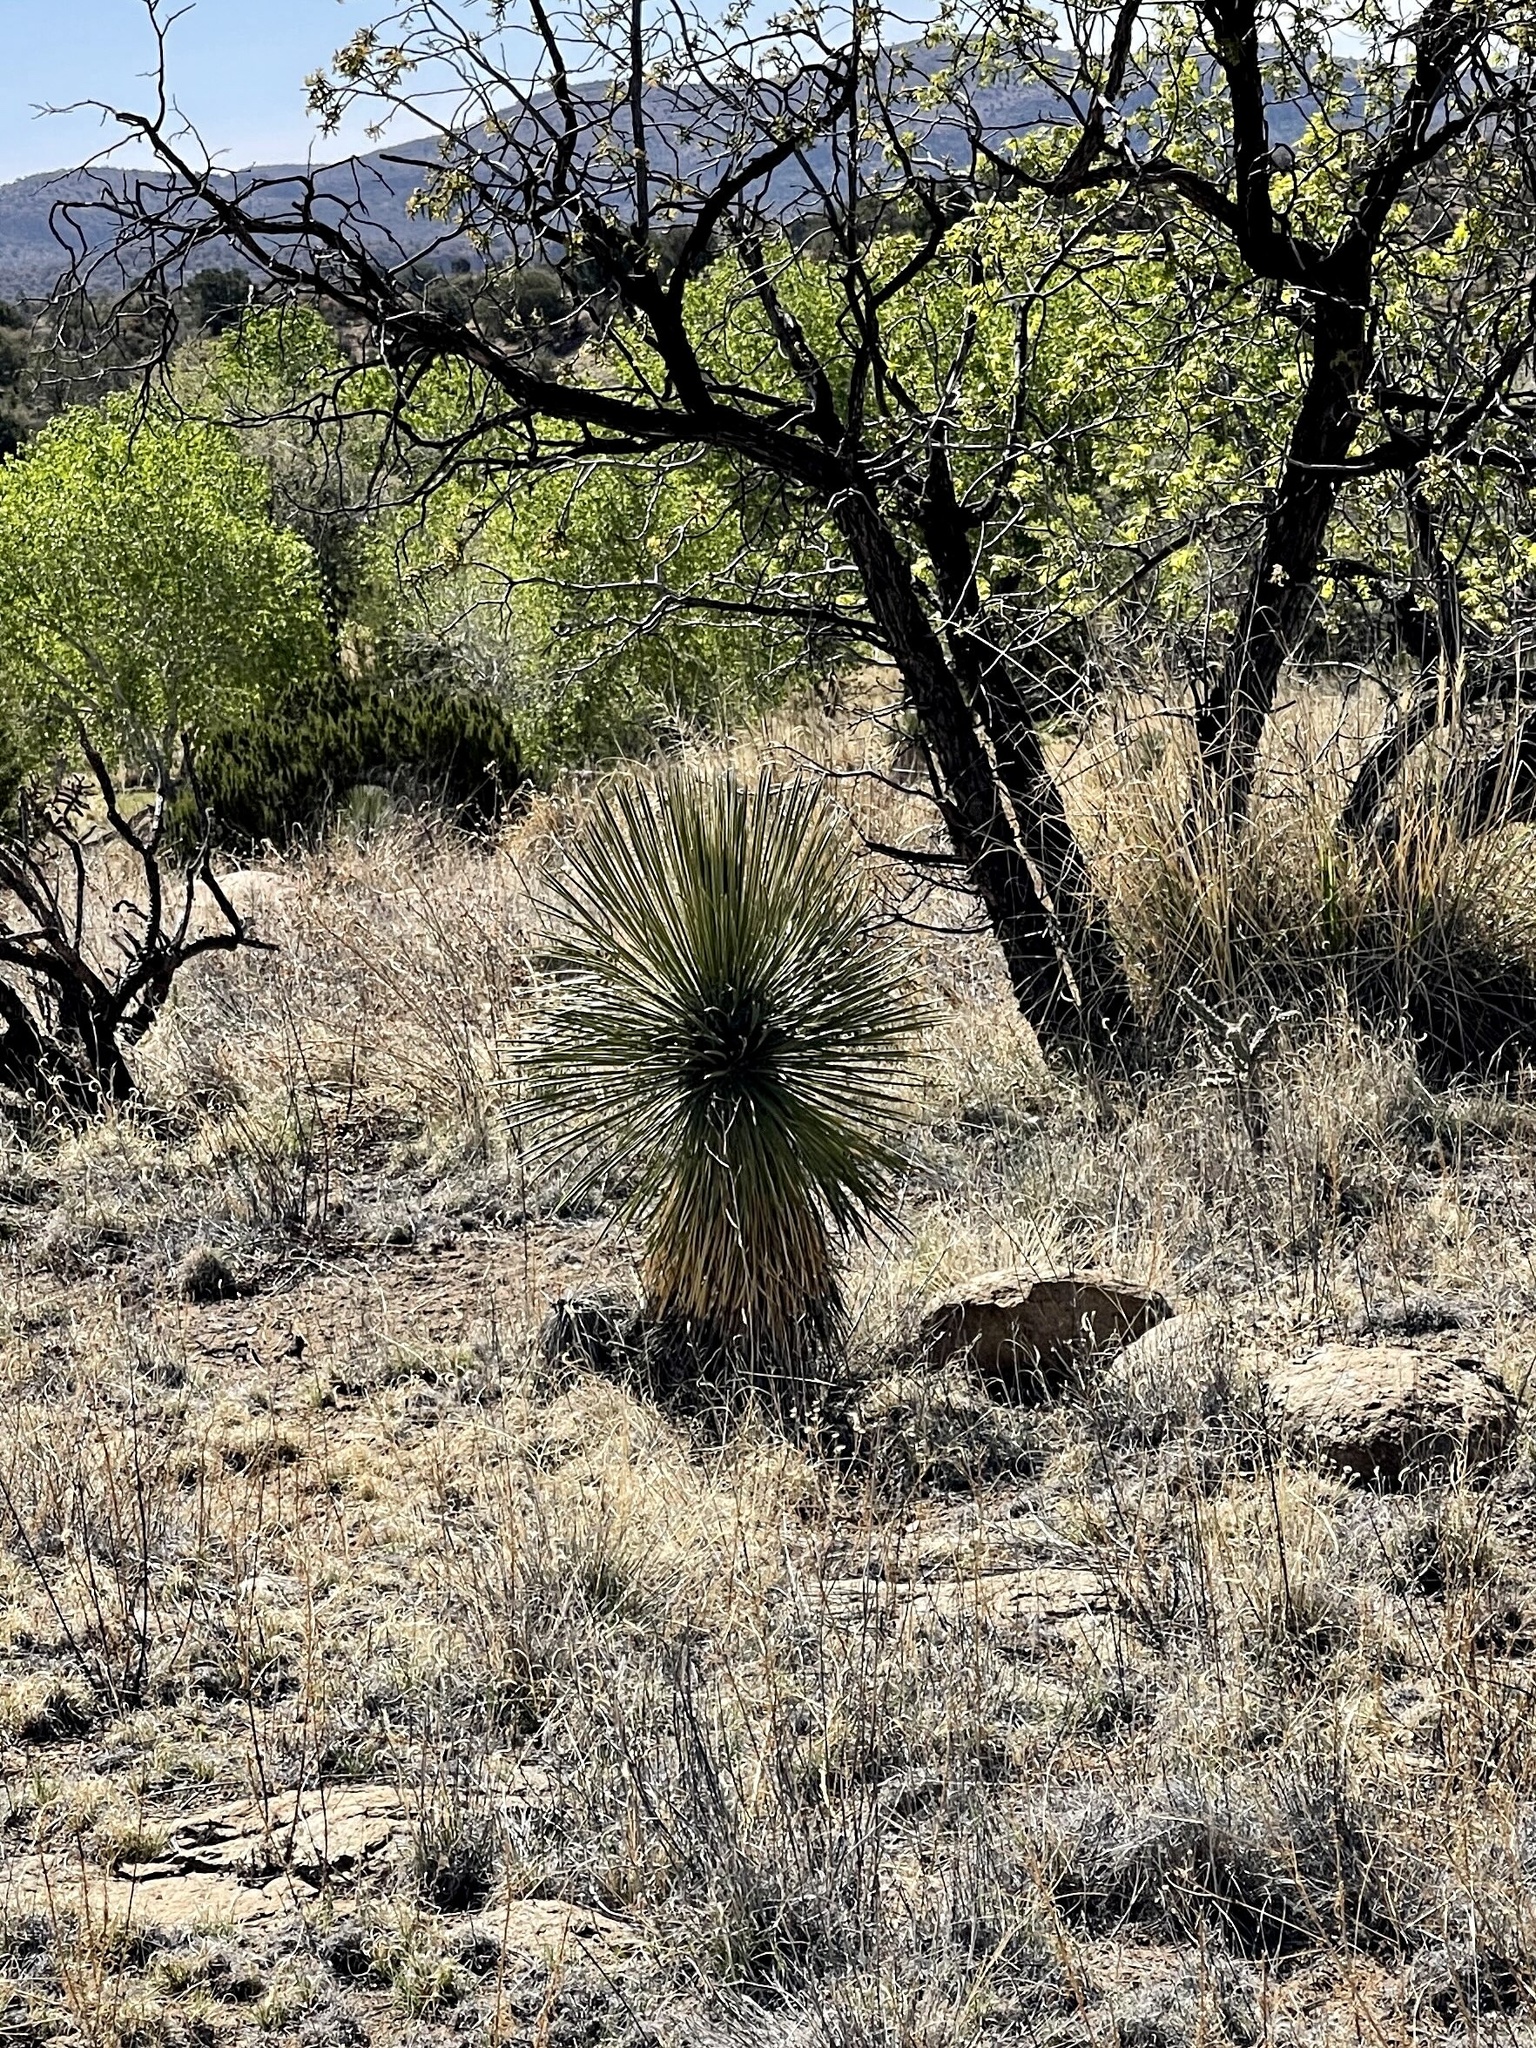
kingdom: Plantae
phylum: Tracheophyta
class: Liliopsida
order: Asparagales
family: Asparagaceae
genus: Yucca
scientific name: Yucca elata
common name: Palmella
